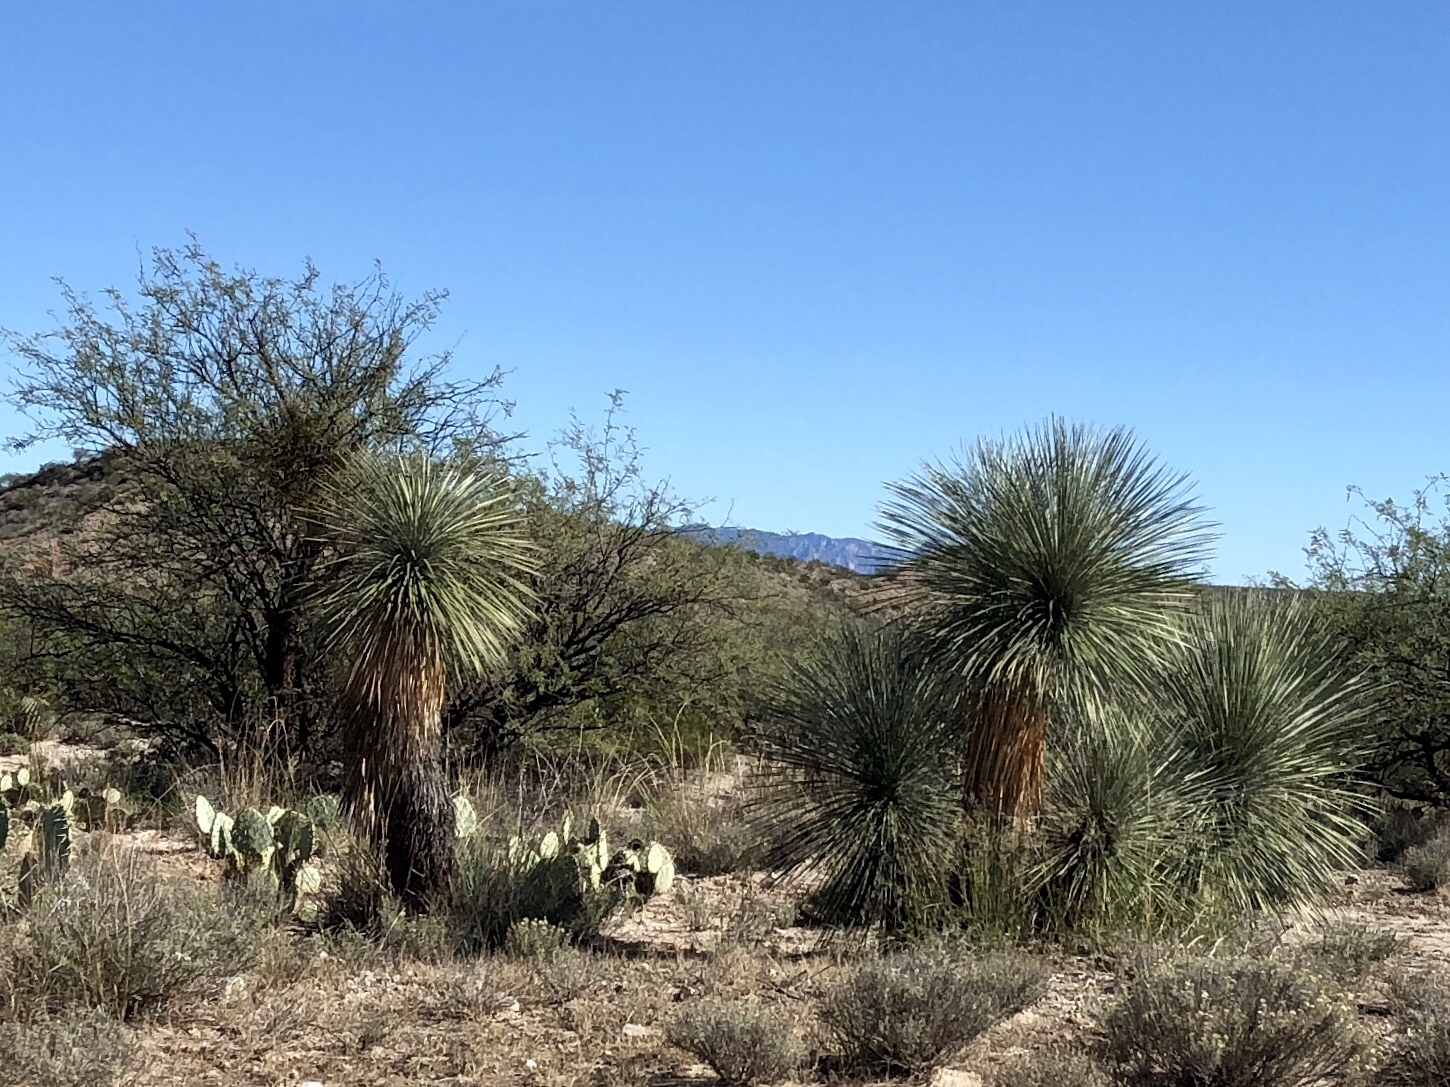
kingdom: Plantae
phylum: Tracheophyta
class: Liliopsida
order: Asparagales
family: Asparagaceae
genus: Yucca
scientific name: Yucca elata
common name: Palmella
